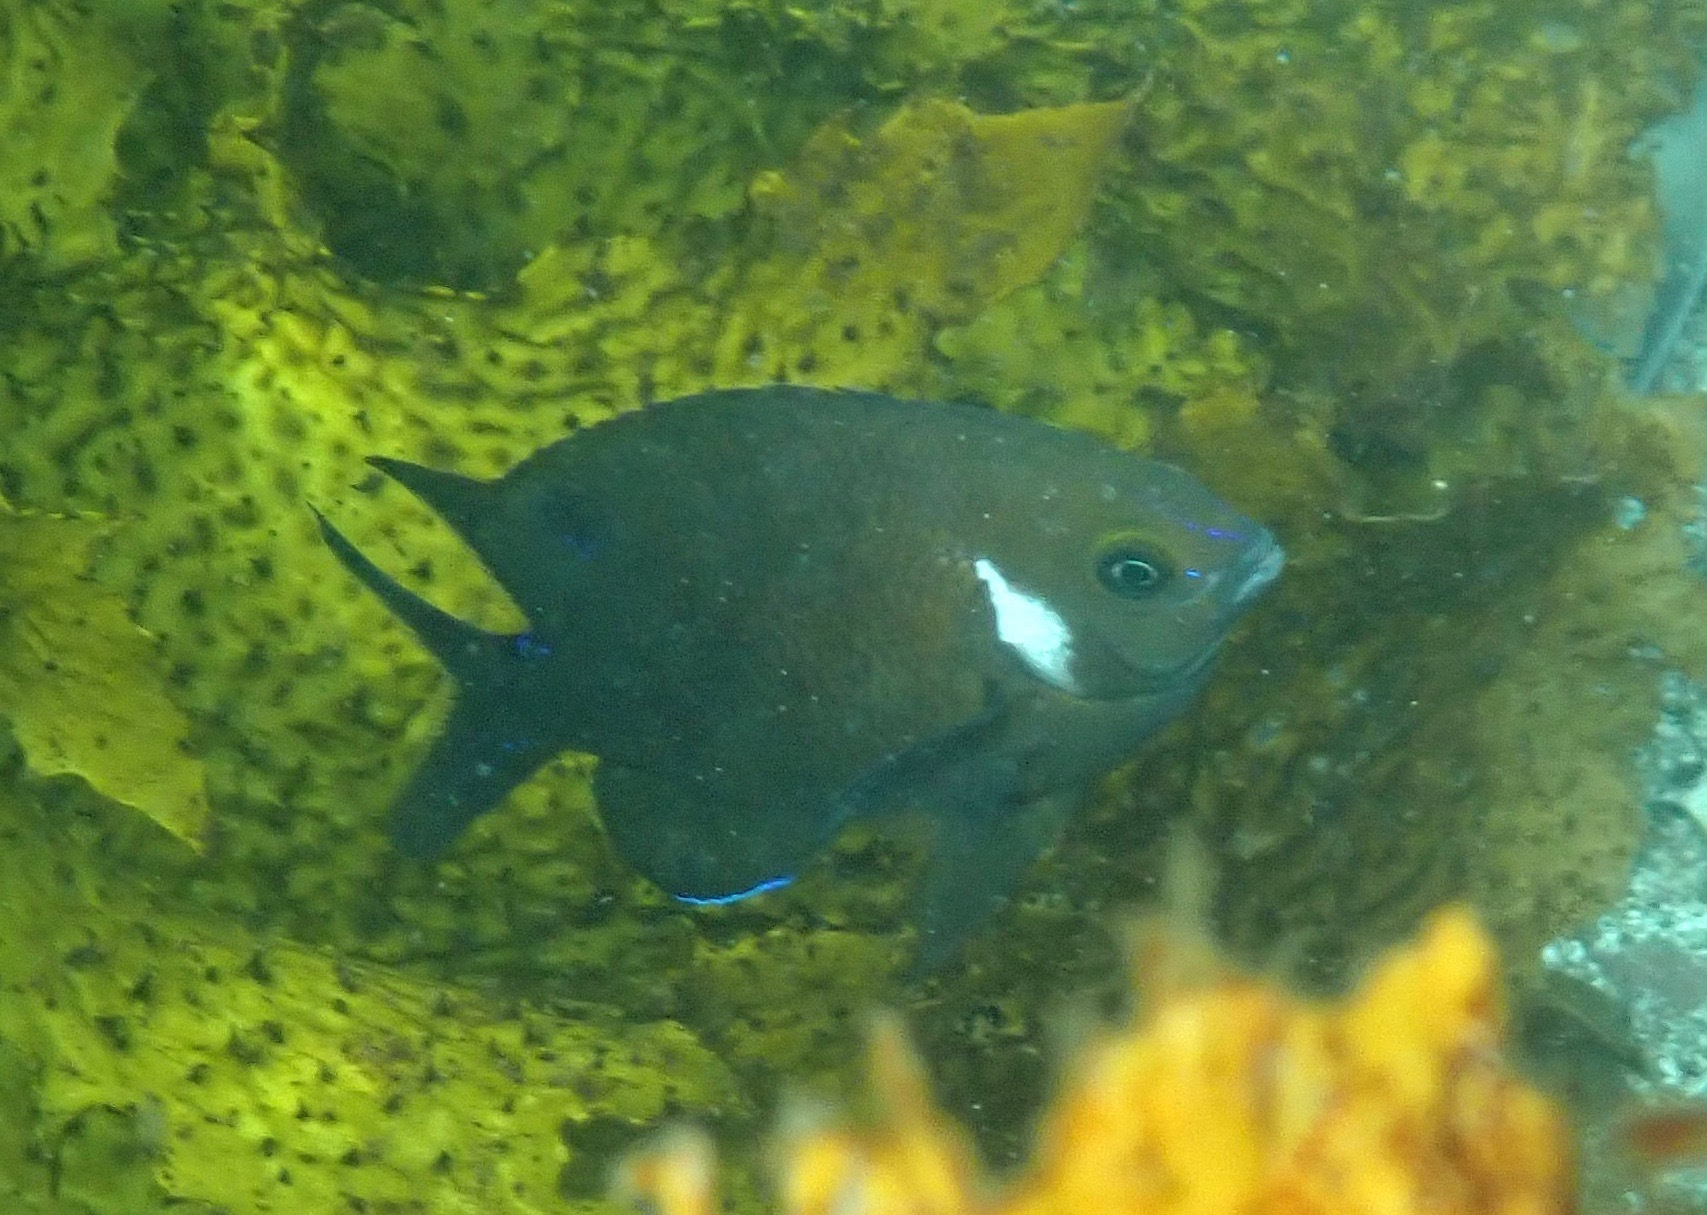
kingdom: Animalia
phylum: Chordata
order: Perciformes
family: Pomacentridae
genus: Parma
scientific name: Parma microlepis
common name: White-ear
